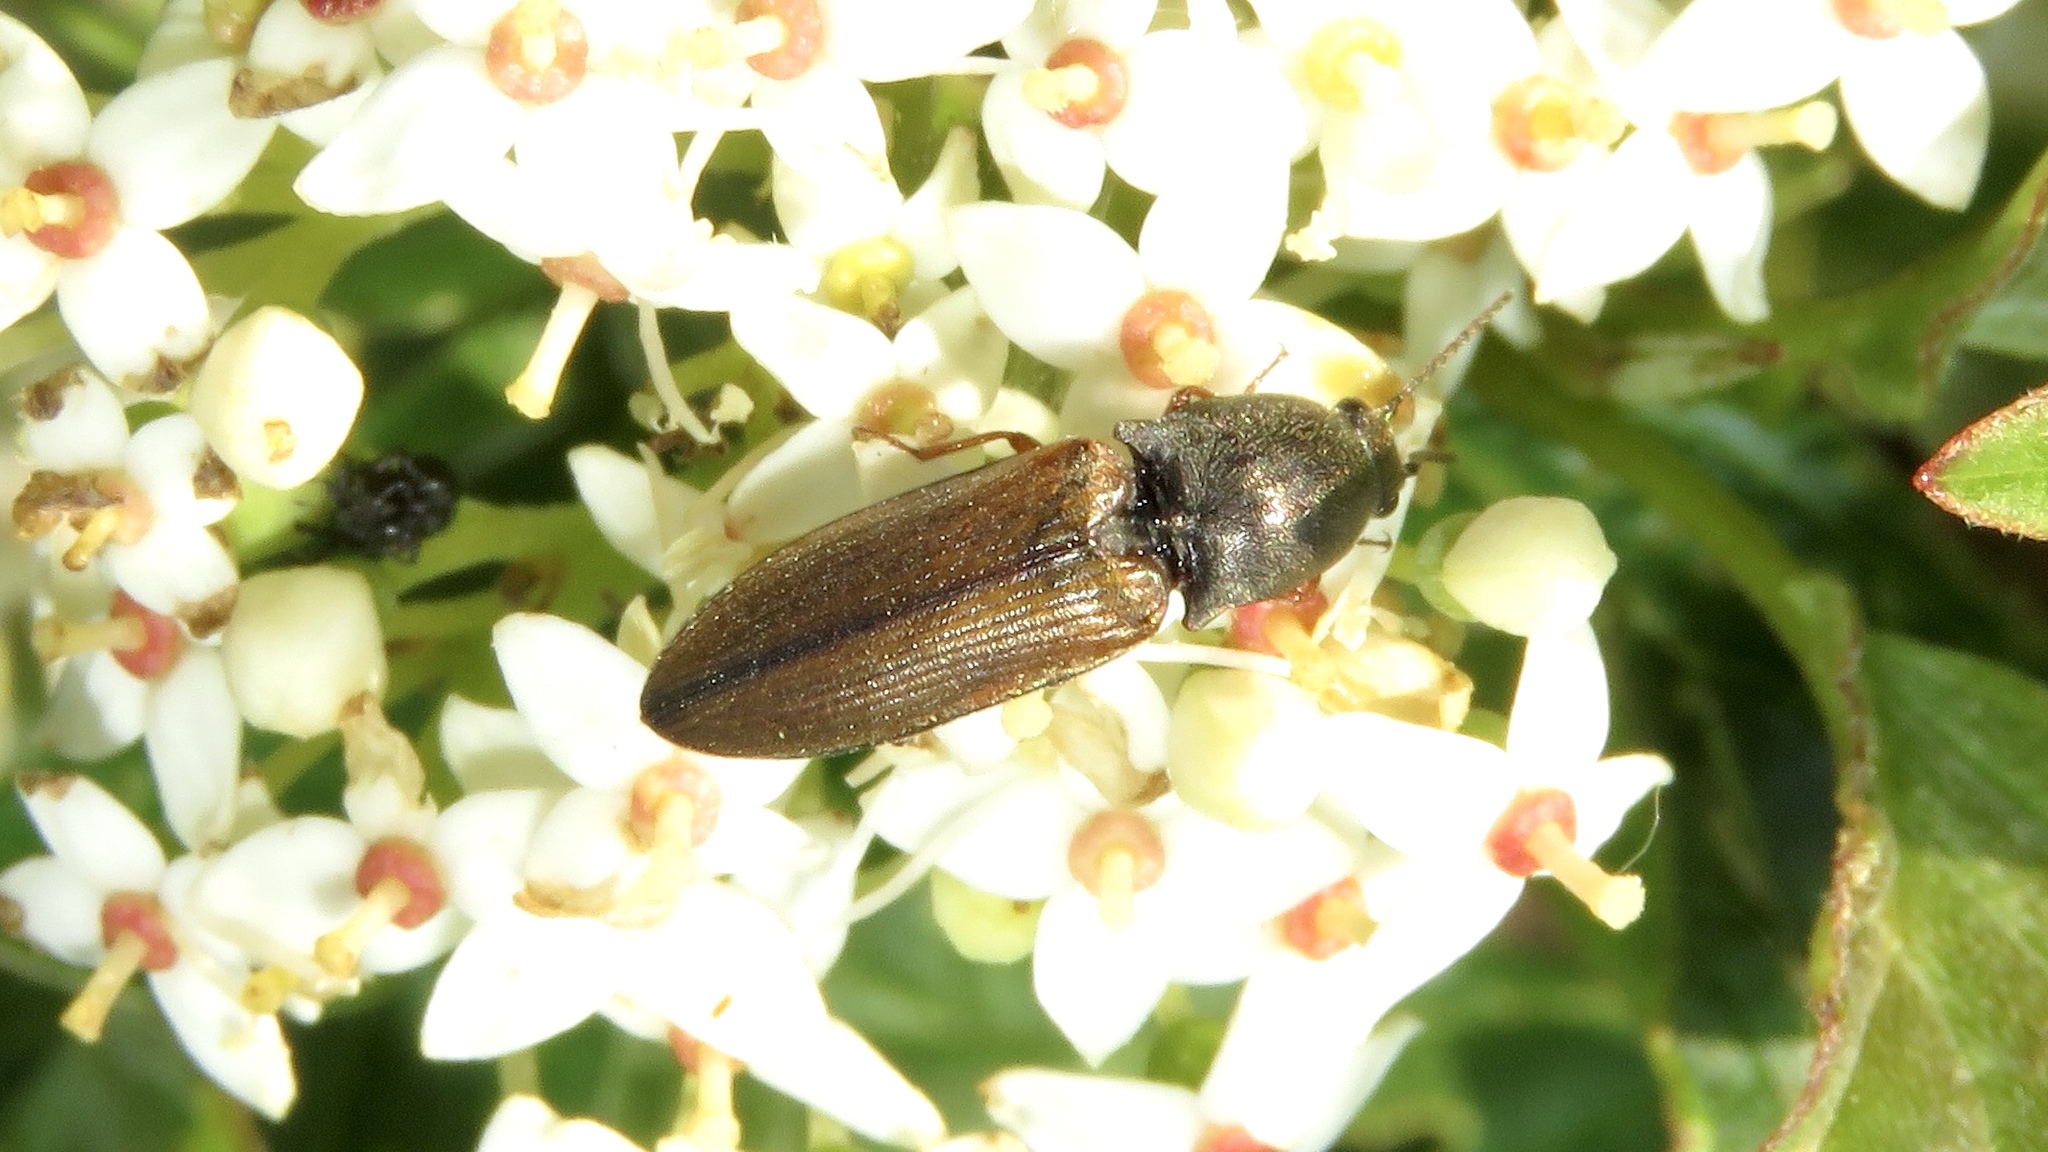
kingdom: Animalia
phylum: Arthropoda
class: Insecta
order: Coleoptera
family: Elateridae
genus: Corymbitodes
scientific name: Corymbitodes tarsalis
